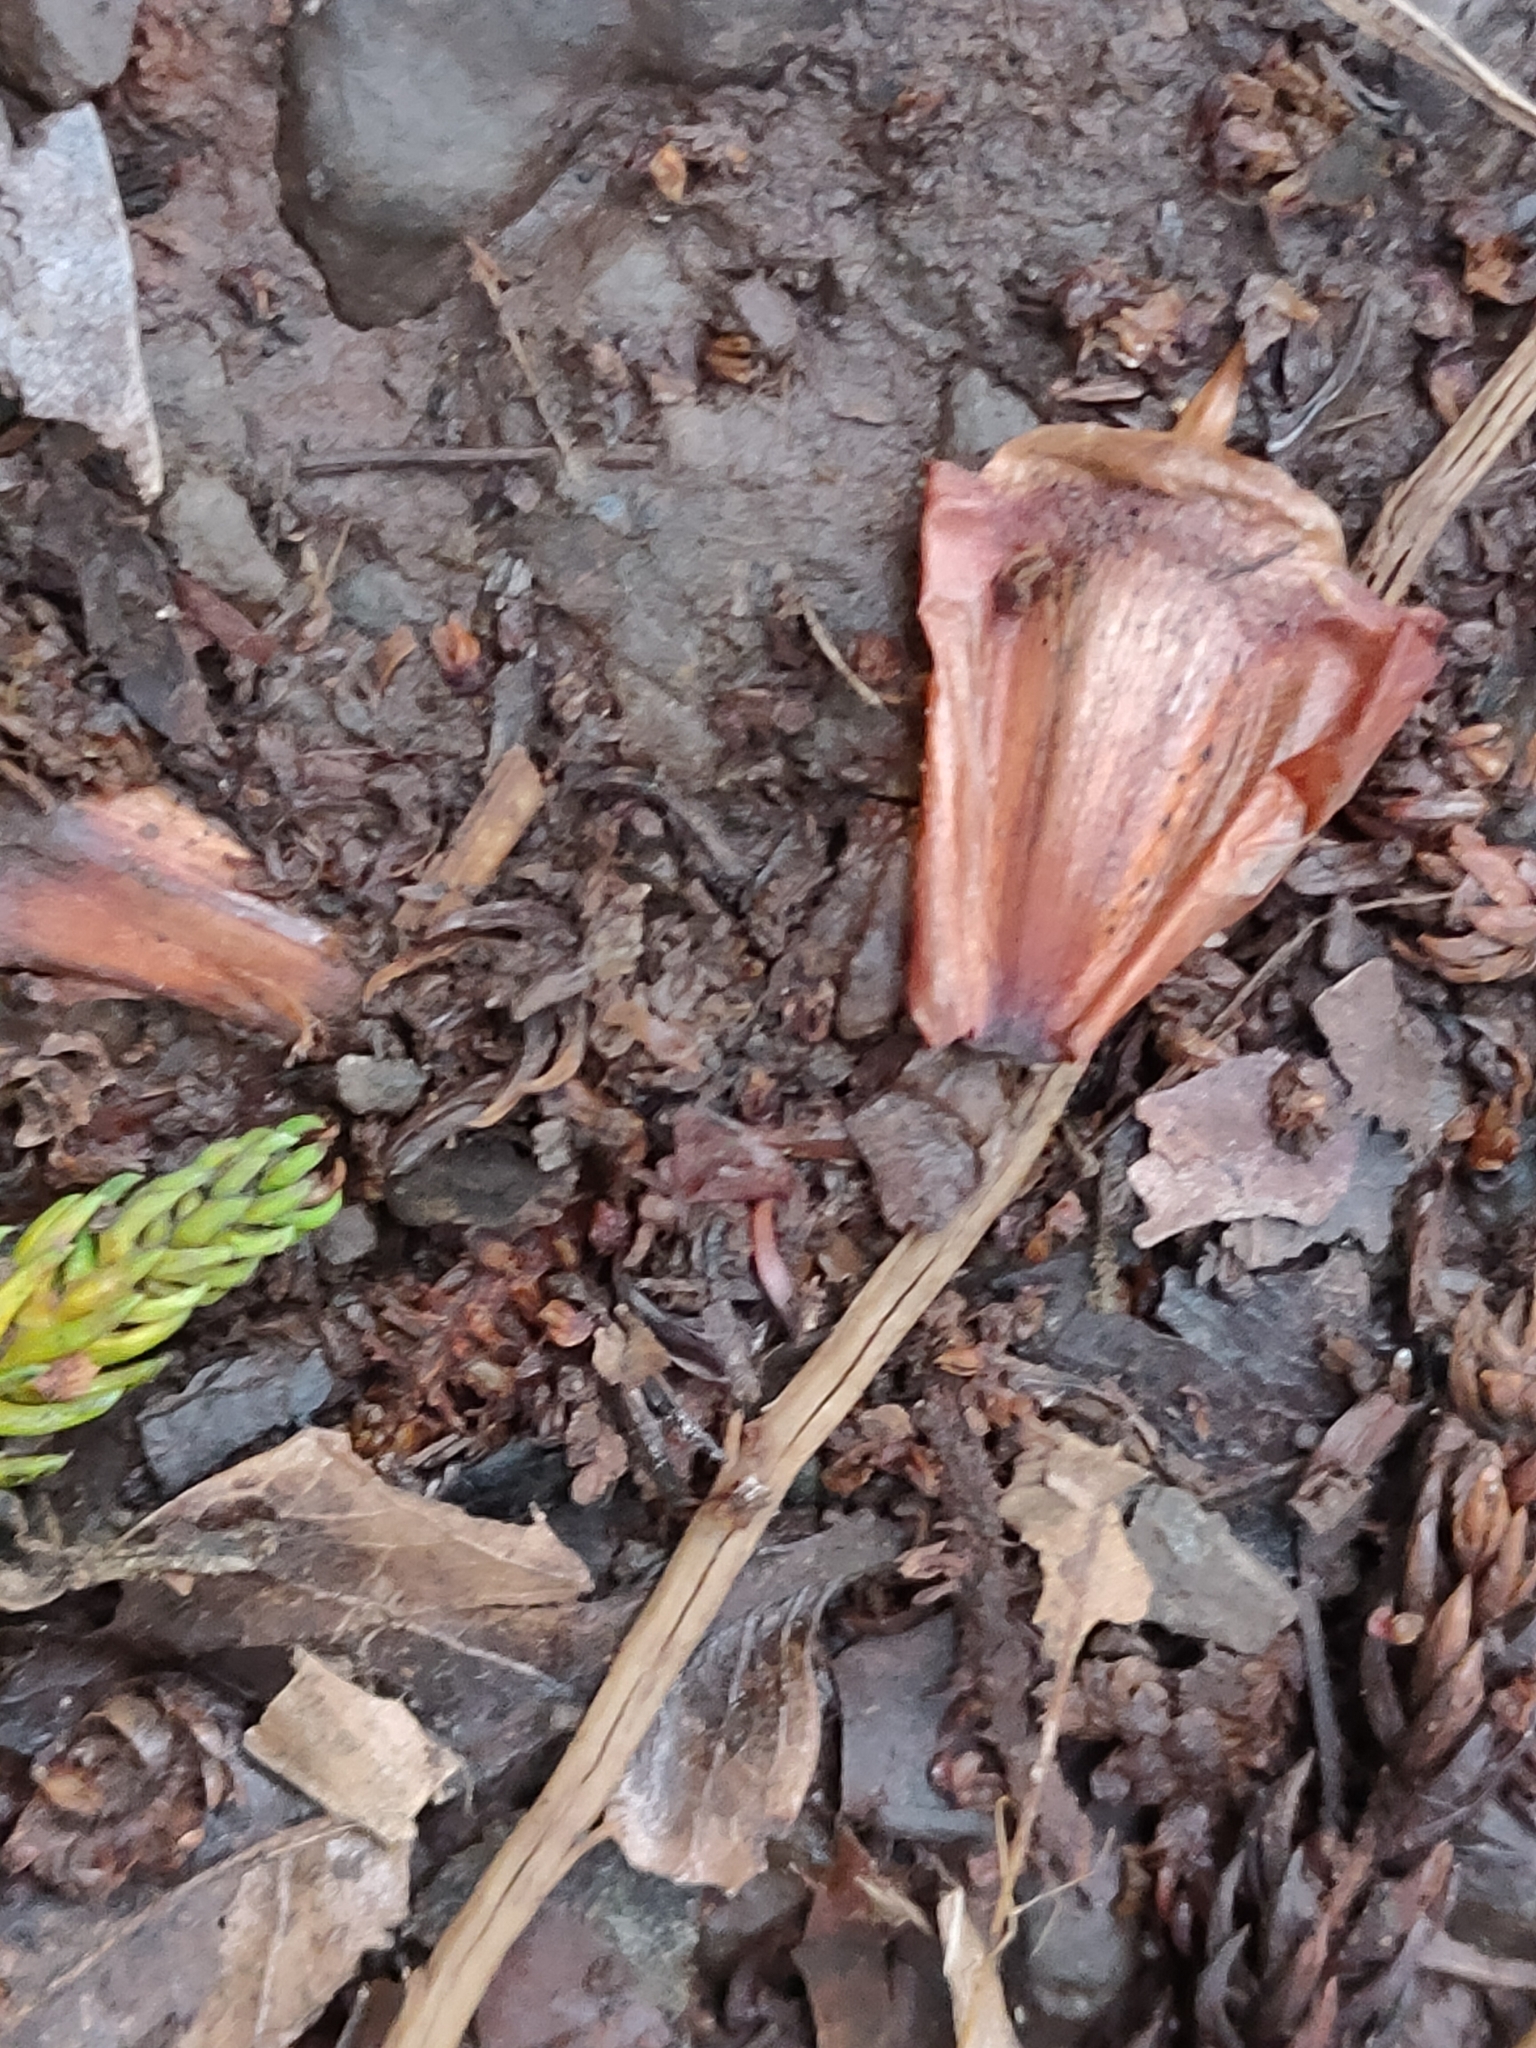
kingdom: Plantae
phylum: Tracheophyta
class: Pinopsida
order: Pinales
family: Araucariaceae
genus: Araucaria
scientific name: Araucaria cunninghamii
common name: Colonial pine
